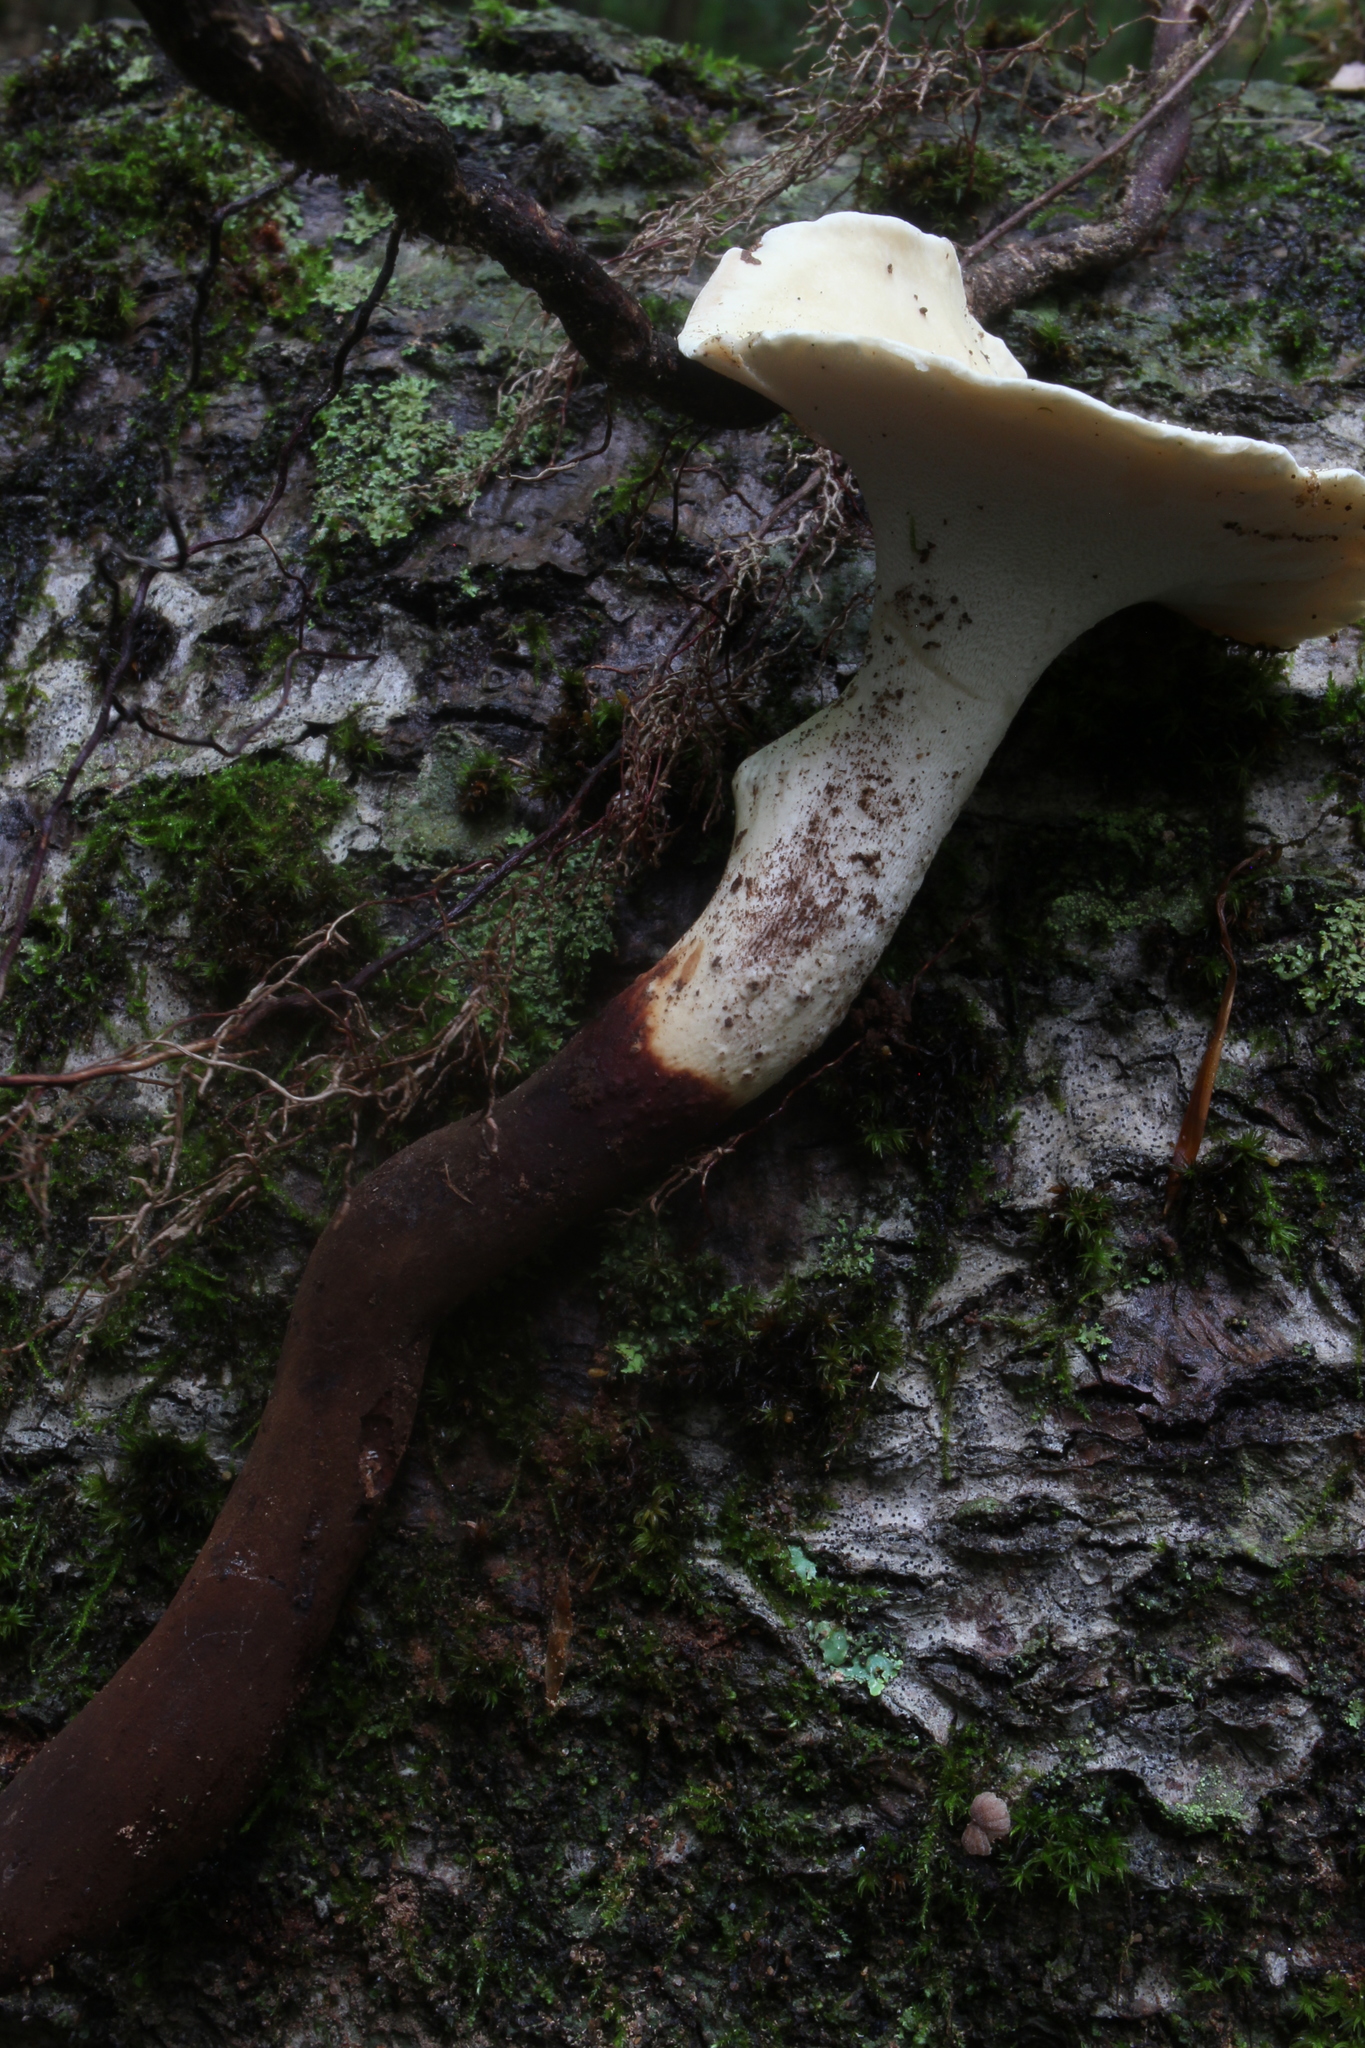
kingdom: Fungi
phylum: Basidiomycota
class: Agaricomycetes
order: Polyporales
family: Polyporaceae
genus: Polyporus
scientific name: Polyporus radicatus
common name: Rooting polypore
